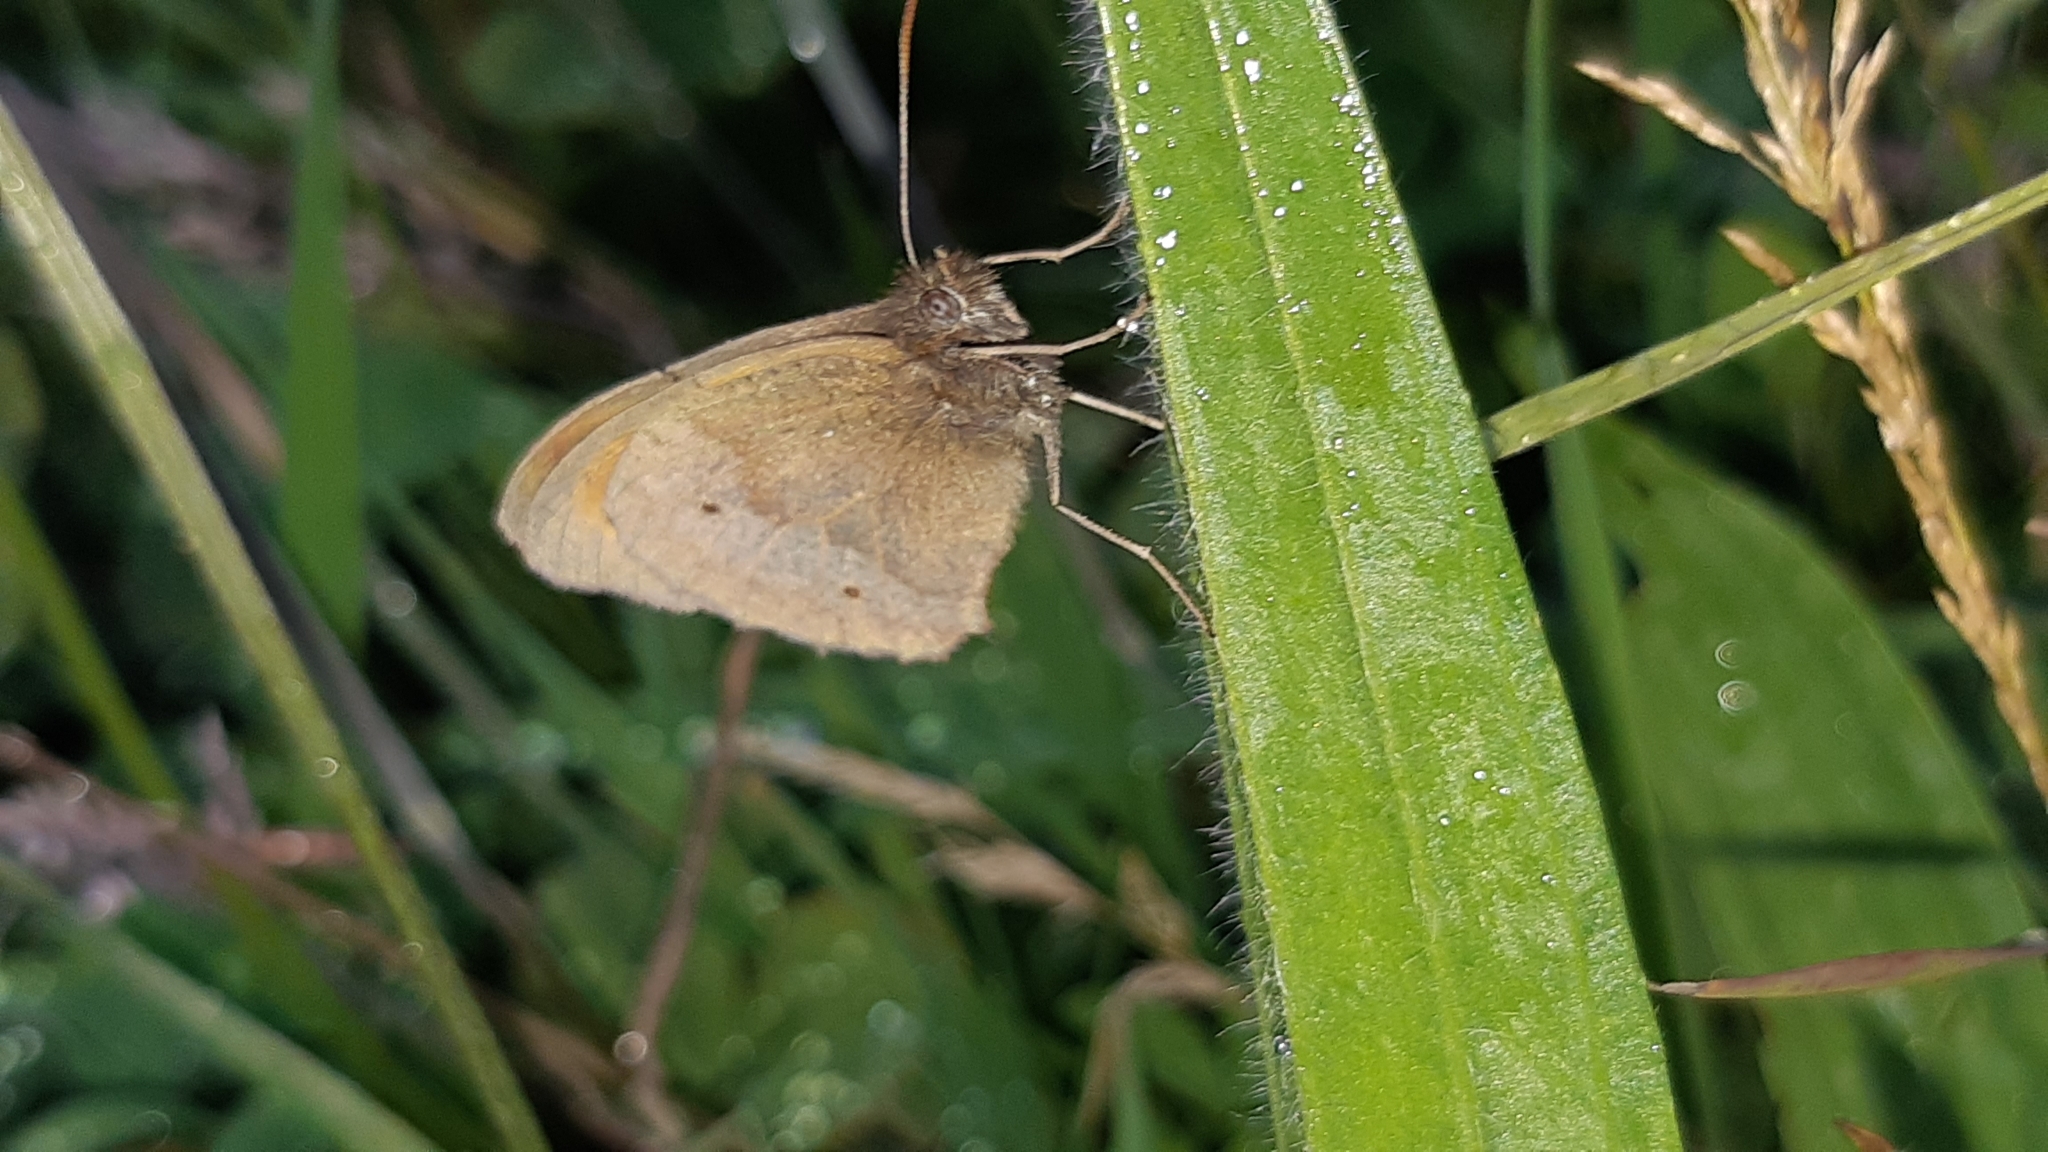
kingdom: Animalia
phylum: Arthropoda
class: Insecta
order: Lepidoptera
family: Nymphalidae
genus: Maniola
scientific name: Maniola jurtina
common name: Meadow brown
